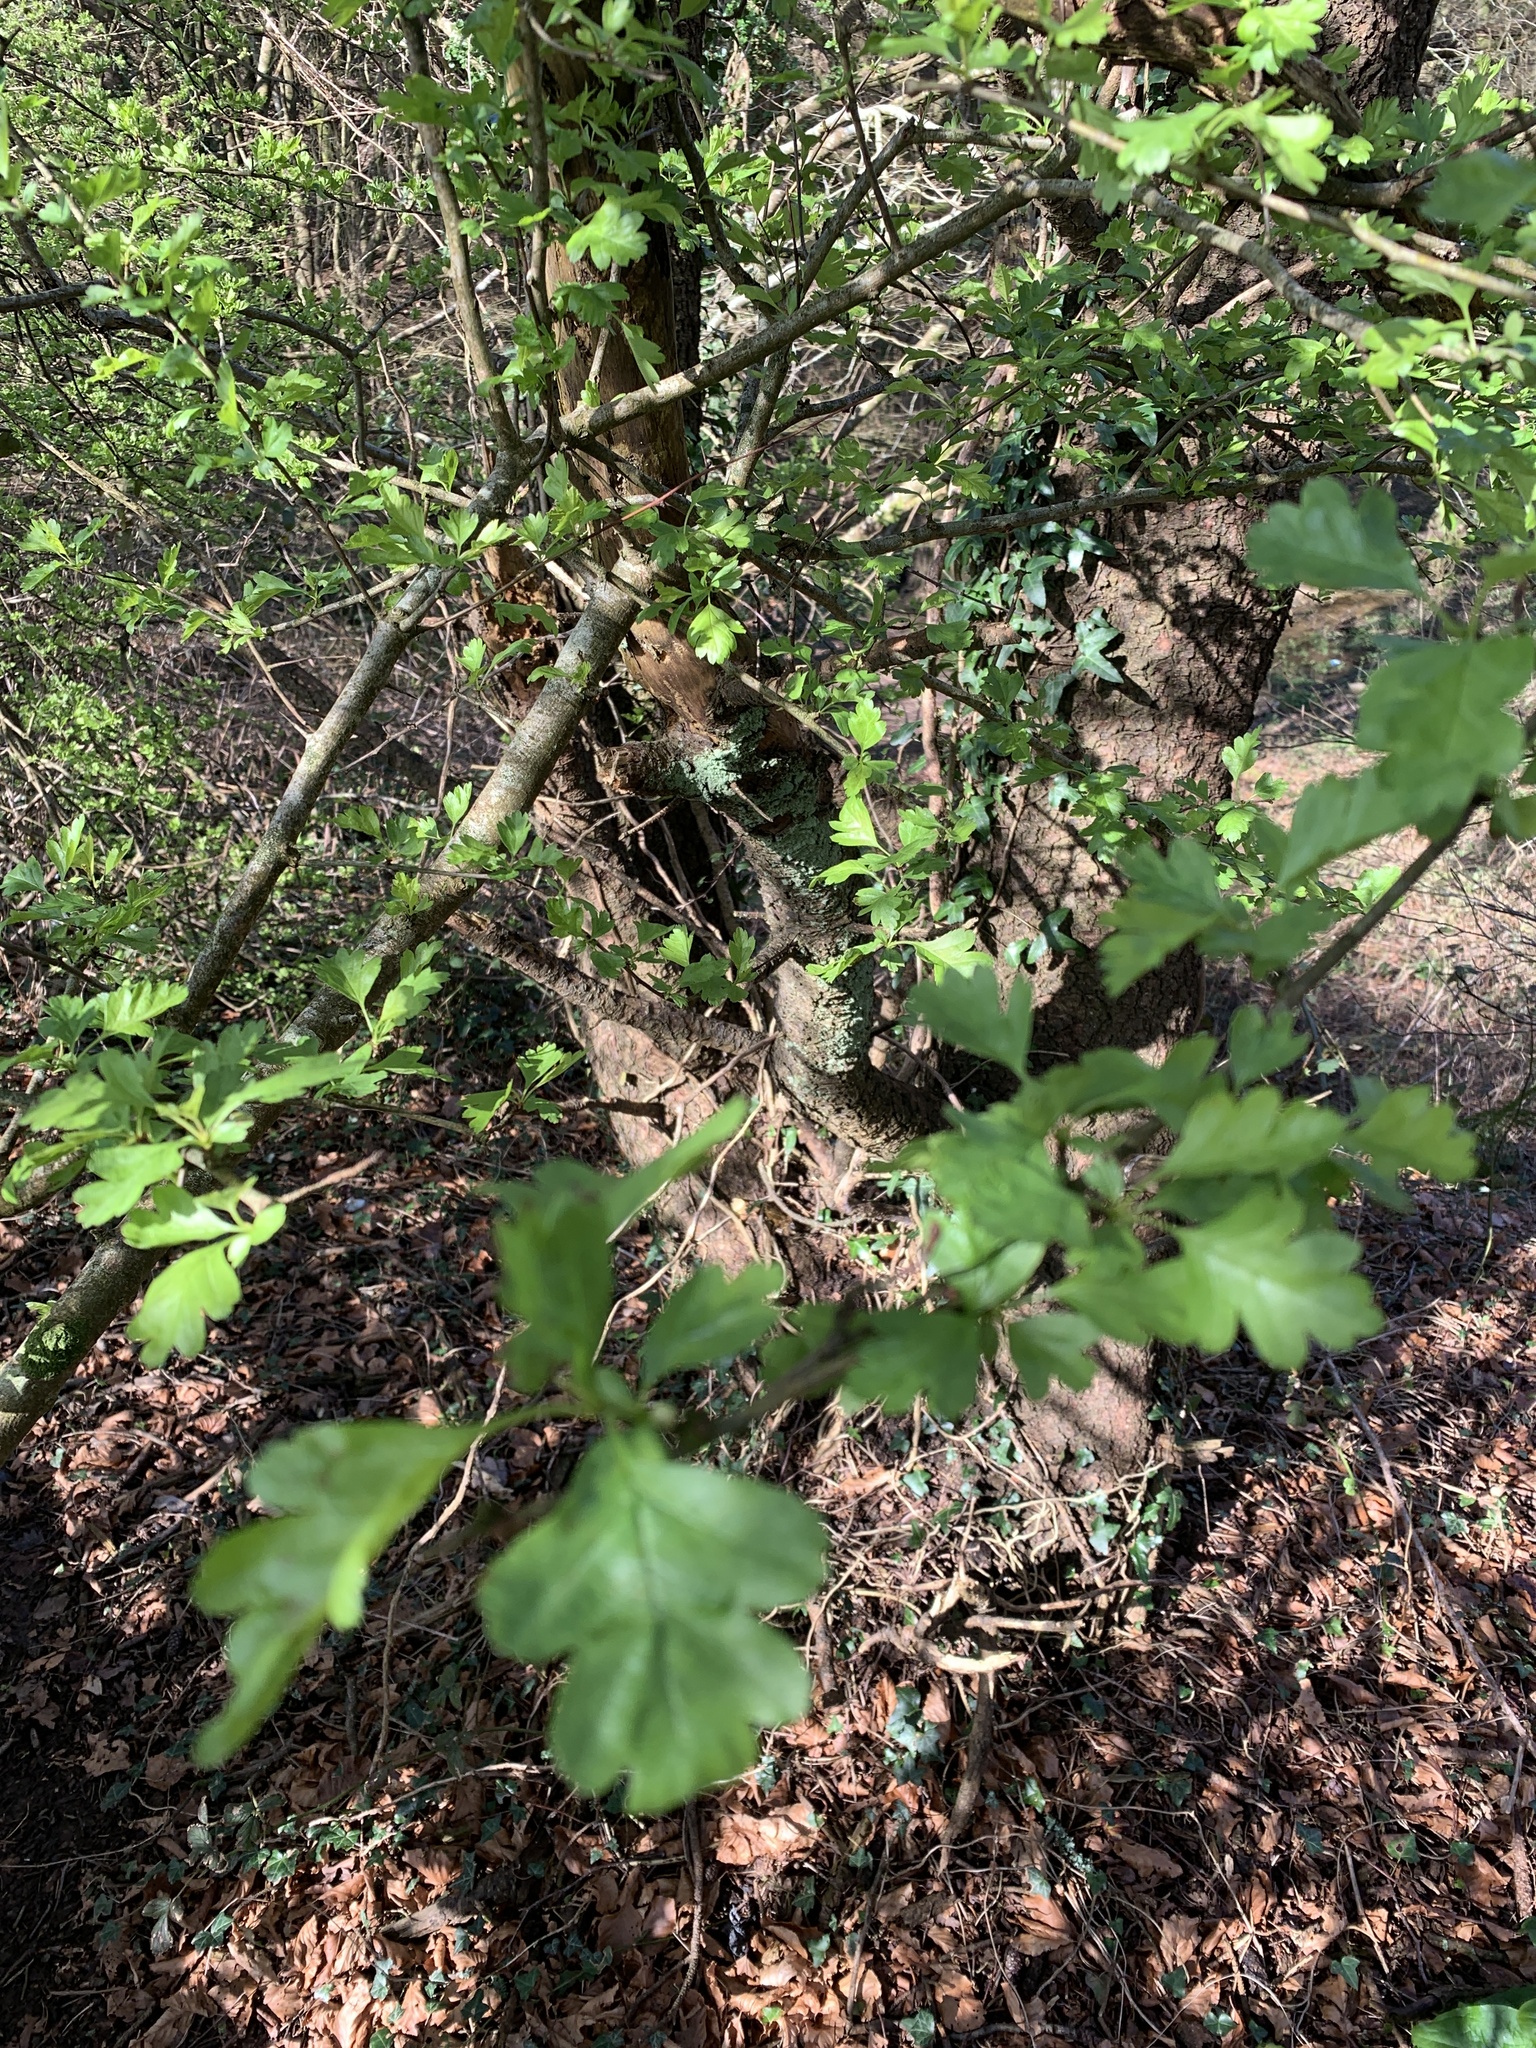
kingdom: Plantae
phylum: Tracheophyta
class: Magnoliopsida
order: Rosales
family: Rosaceae
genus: Crataegus
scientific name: Crataegus monogyna
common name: Hawthorn
